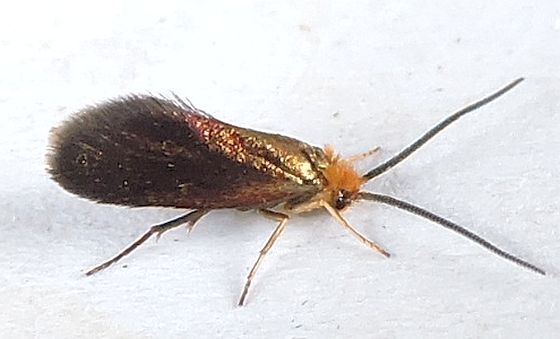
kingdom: Animalia
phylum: Arthropoda
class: Insecta
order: Lepidoptera
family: Micropterigidae
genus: Epimartyria
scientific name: Epimartyria auricrinella
